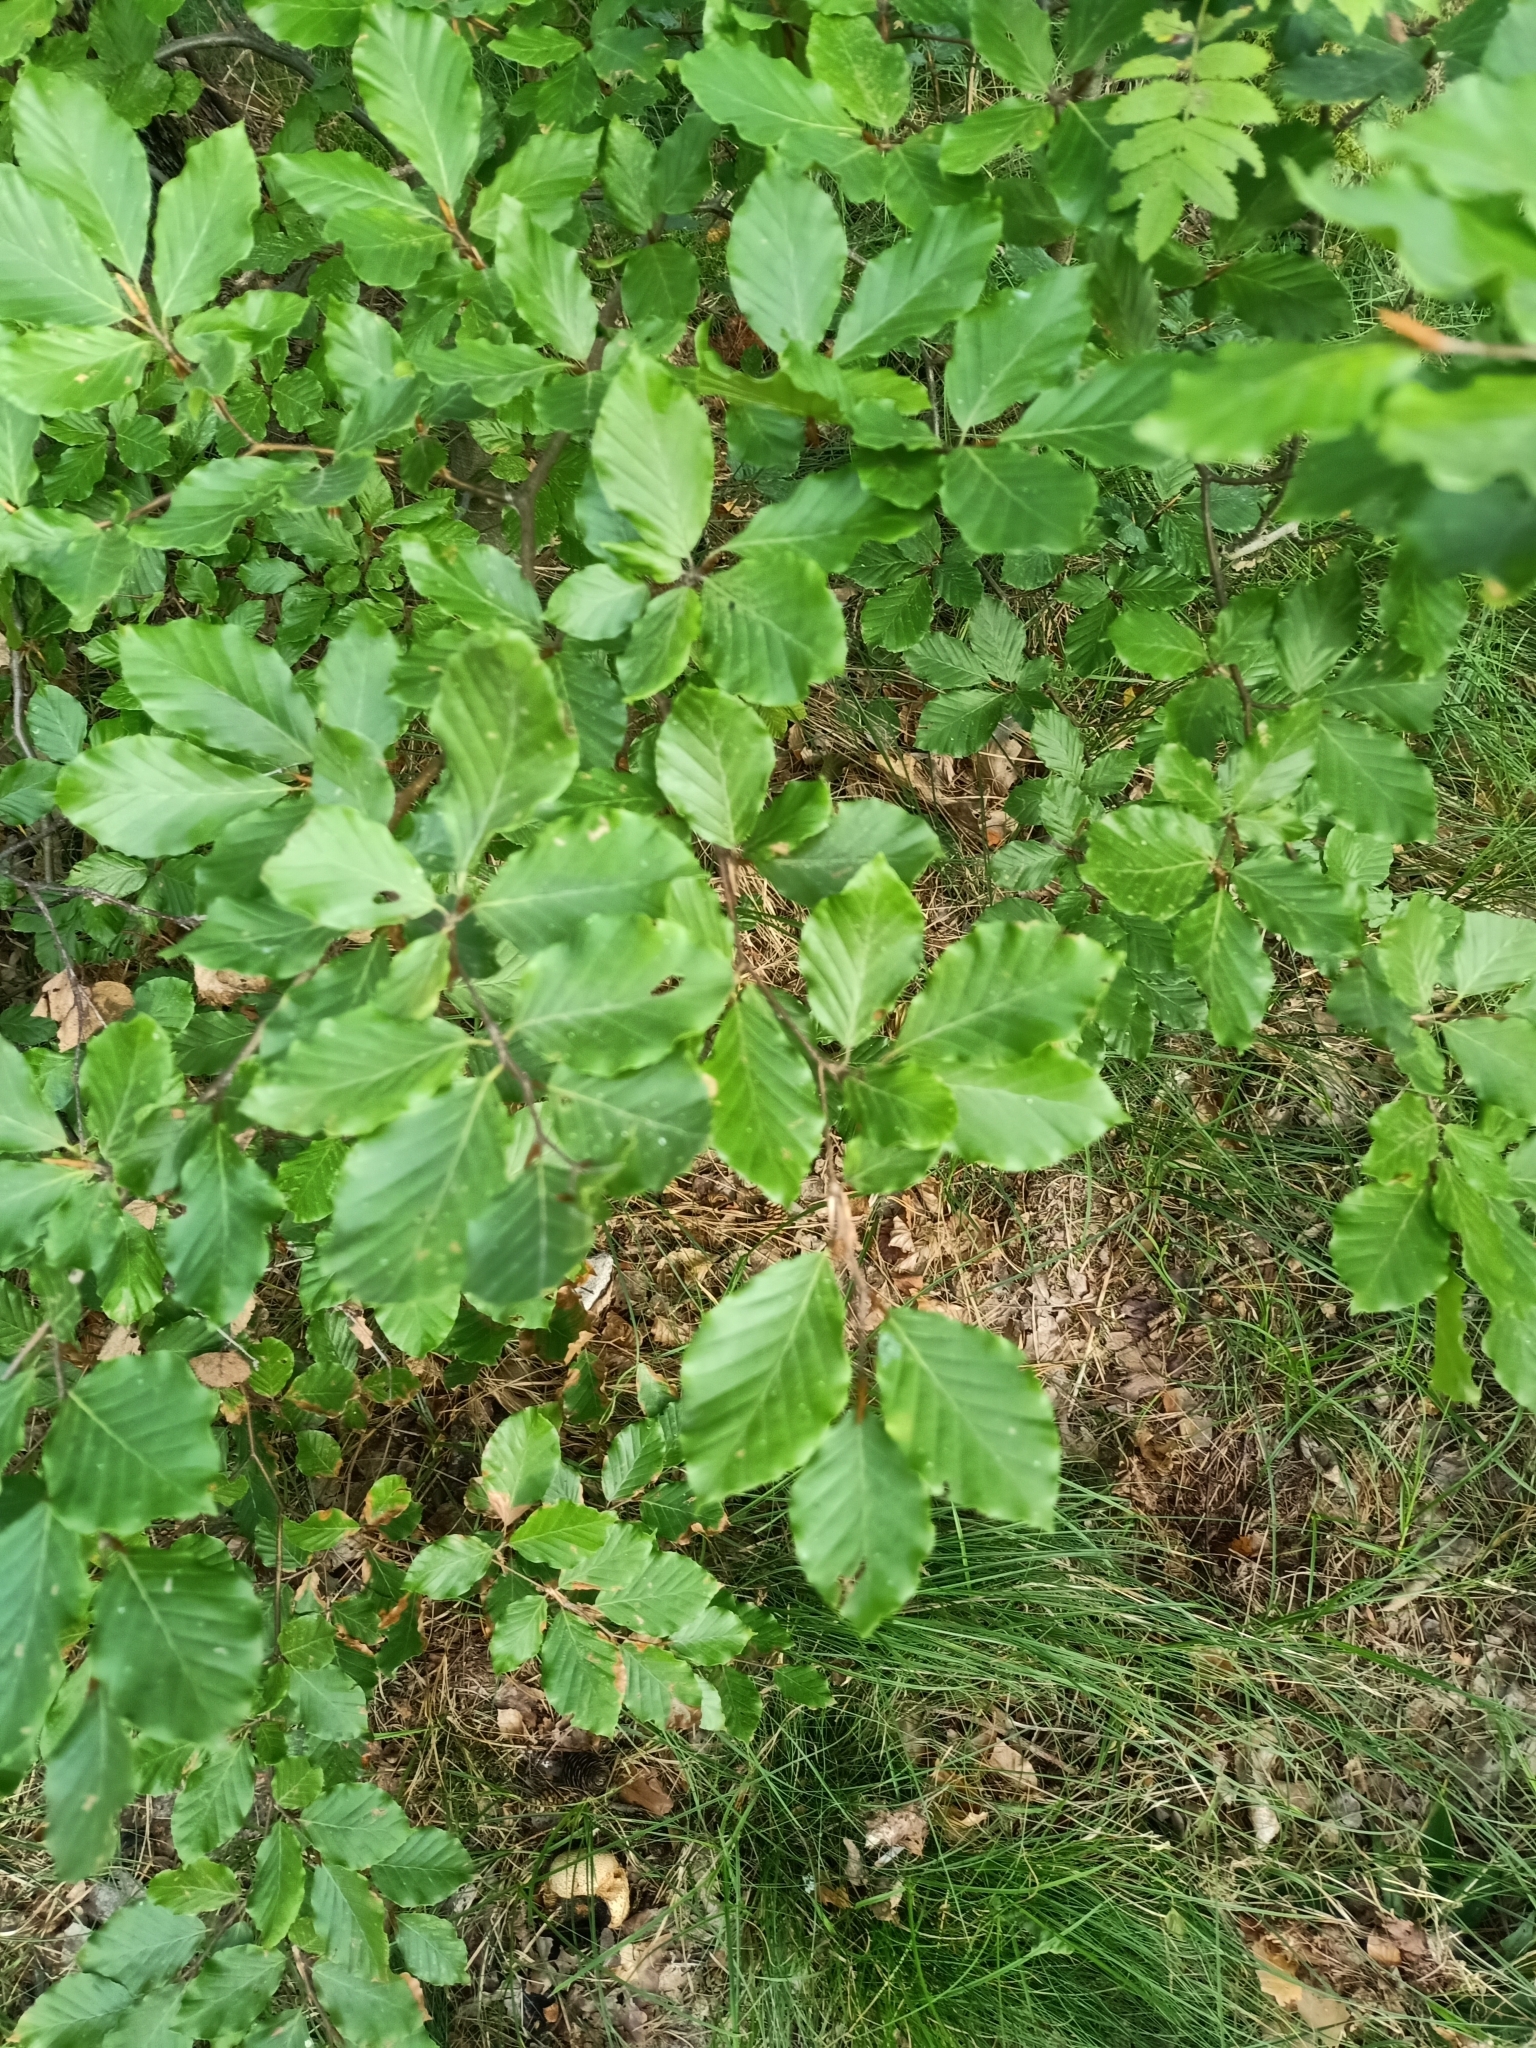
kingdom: Plantae
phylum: Tracheophyta
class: Magnoliopsida
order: Fagales
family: Fagaceae
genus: Fagus
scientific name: Fagus sylvatica
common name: Beech
